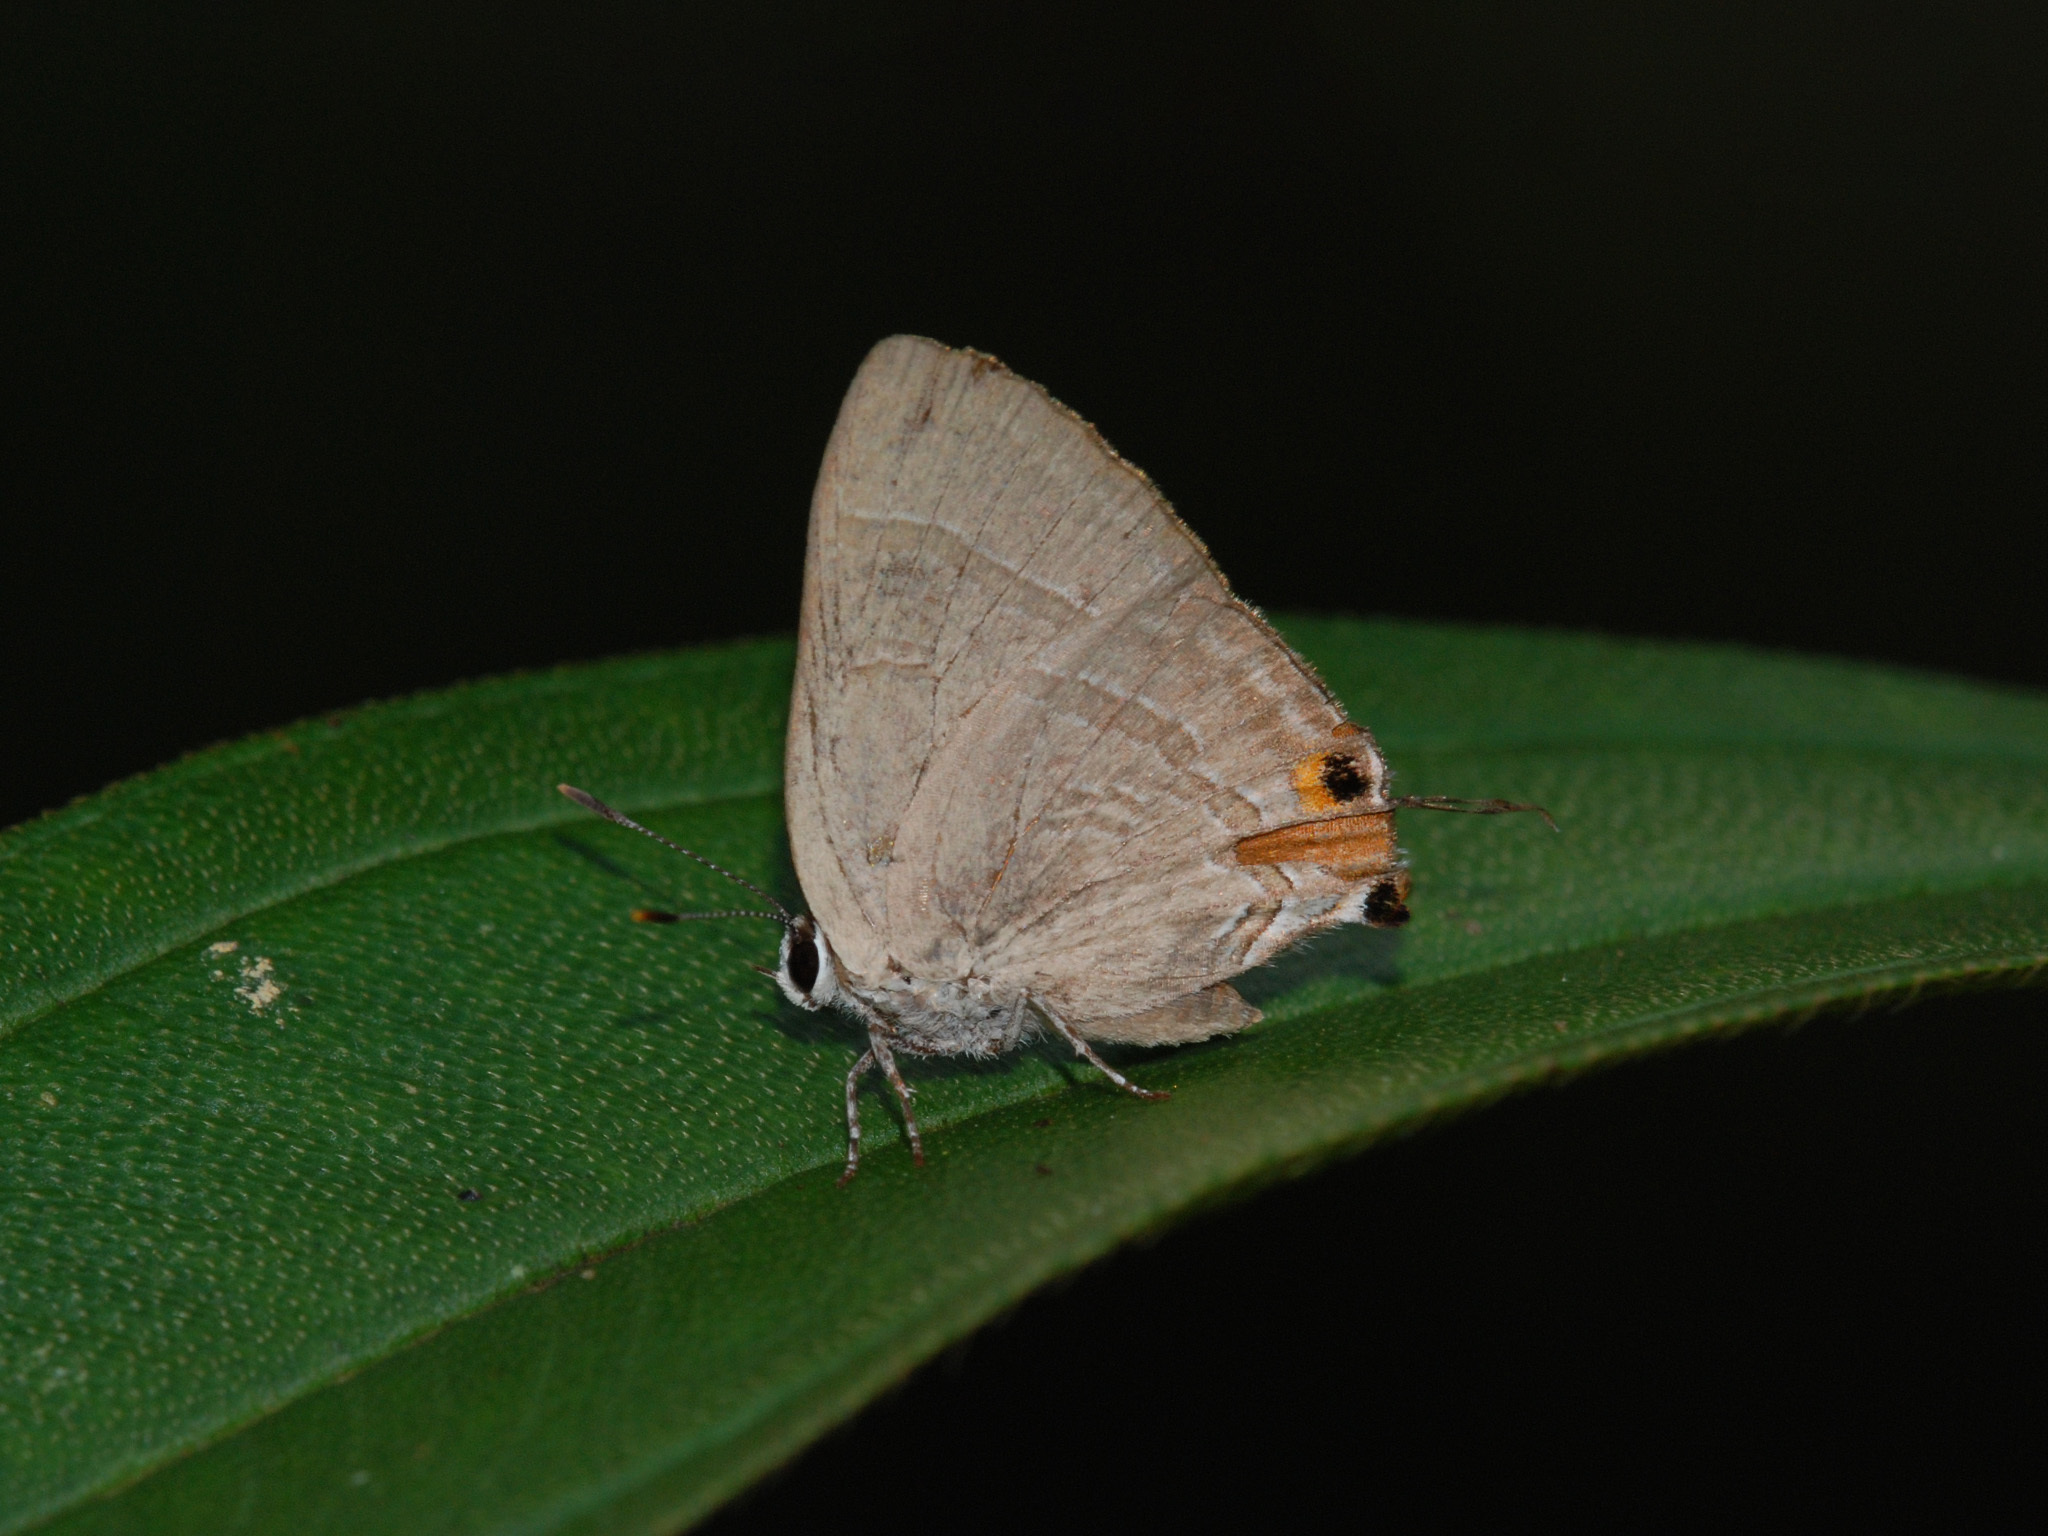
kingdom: Animalia
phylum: Arthropoda
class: Insecta
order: Lepidoptera
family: Lycaenidae
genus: Rapala
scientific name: Rapala iarbus
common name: Common red flash
